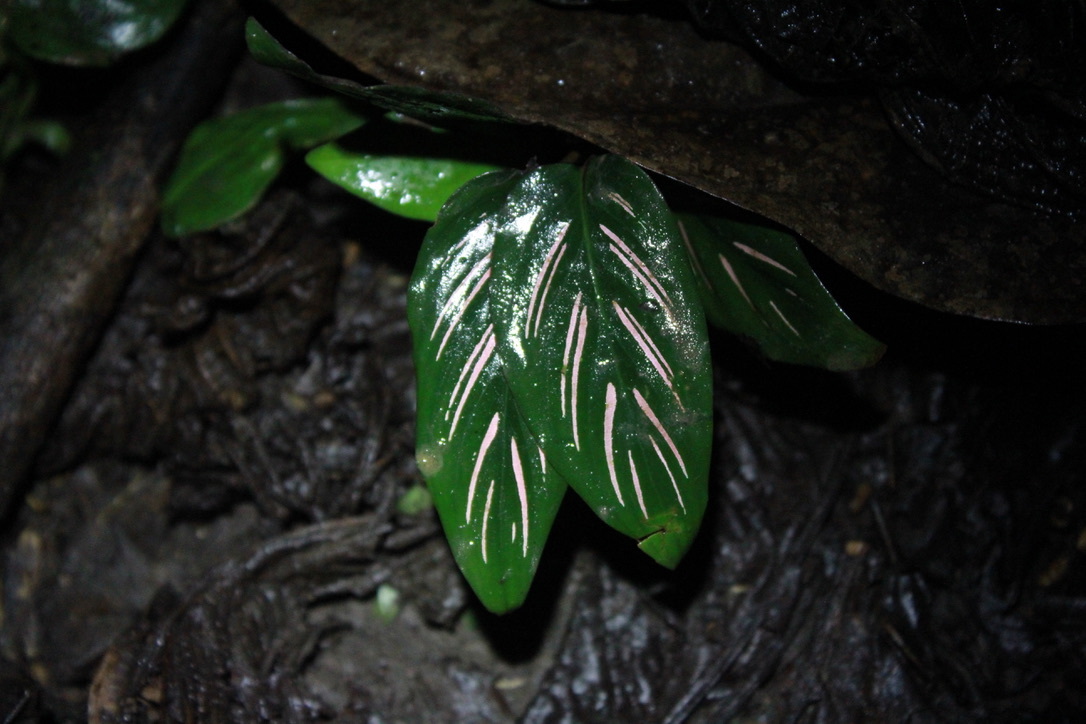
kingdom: Plantae
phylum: Tracheophyta
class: Liliopsida
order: Zingiberales
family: Marantaceae
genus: Goeppertia
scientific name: Goeppertia ornata
